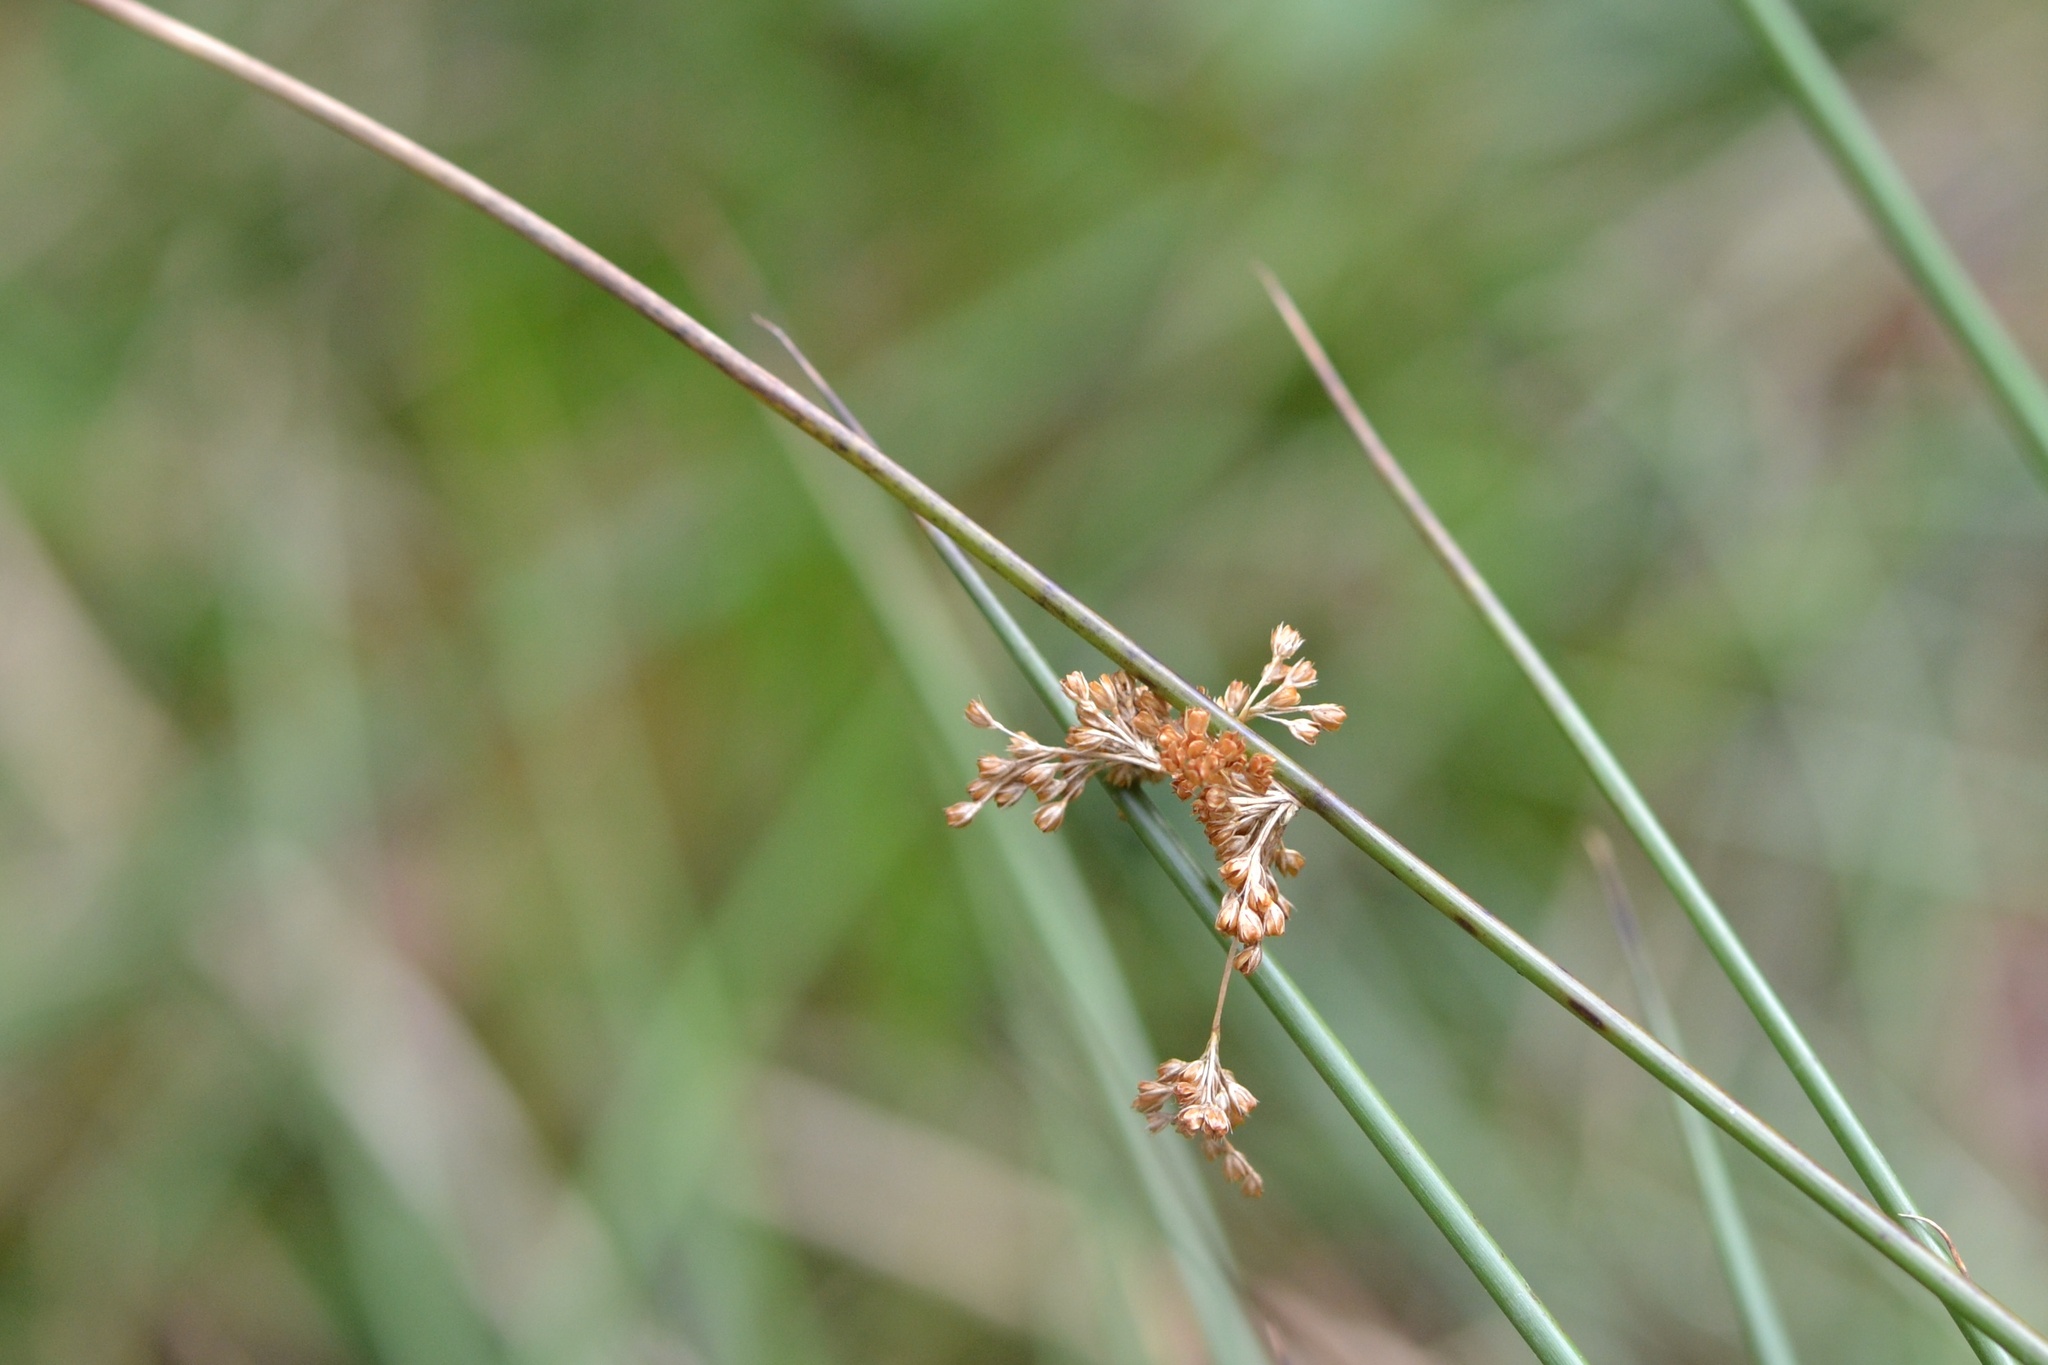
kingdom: Plantae
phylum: Tracheophyta
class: Liliopsida
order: Poales
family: Juncaceae
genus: Juncus
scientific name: Juncus effusus
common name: Soft rush
